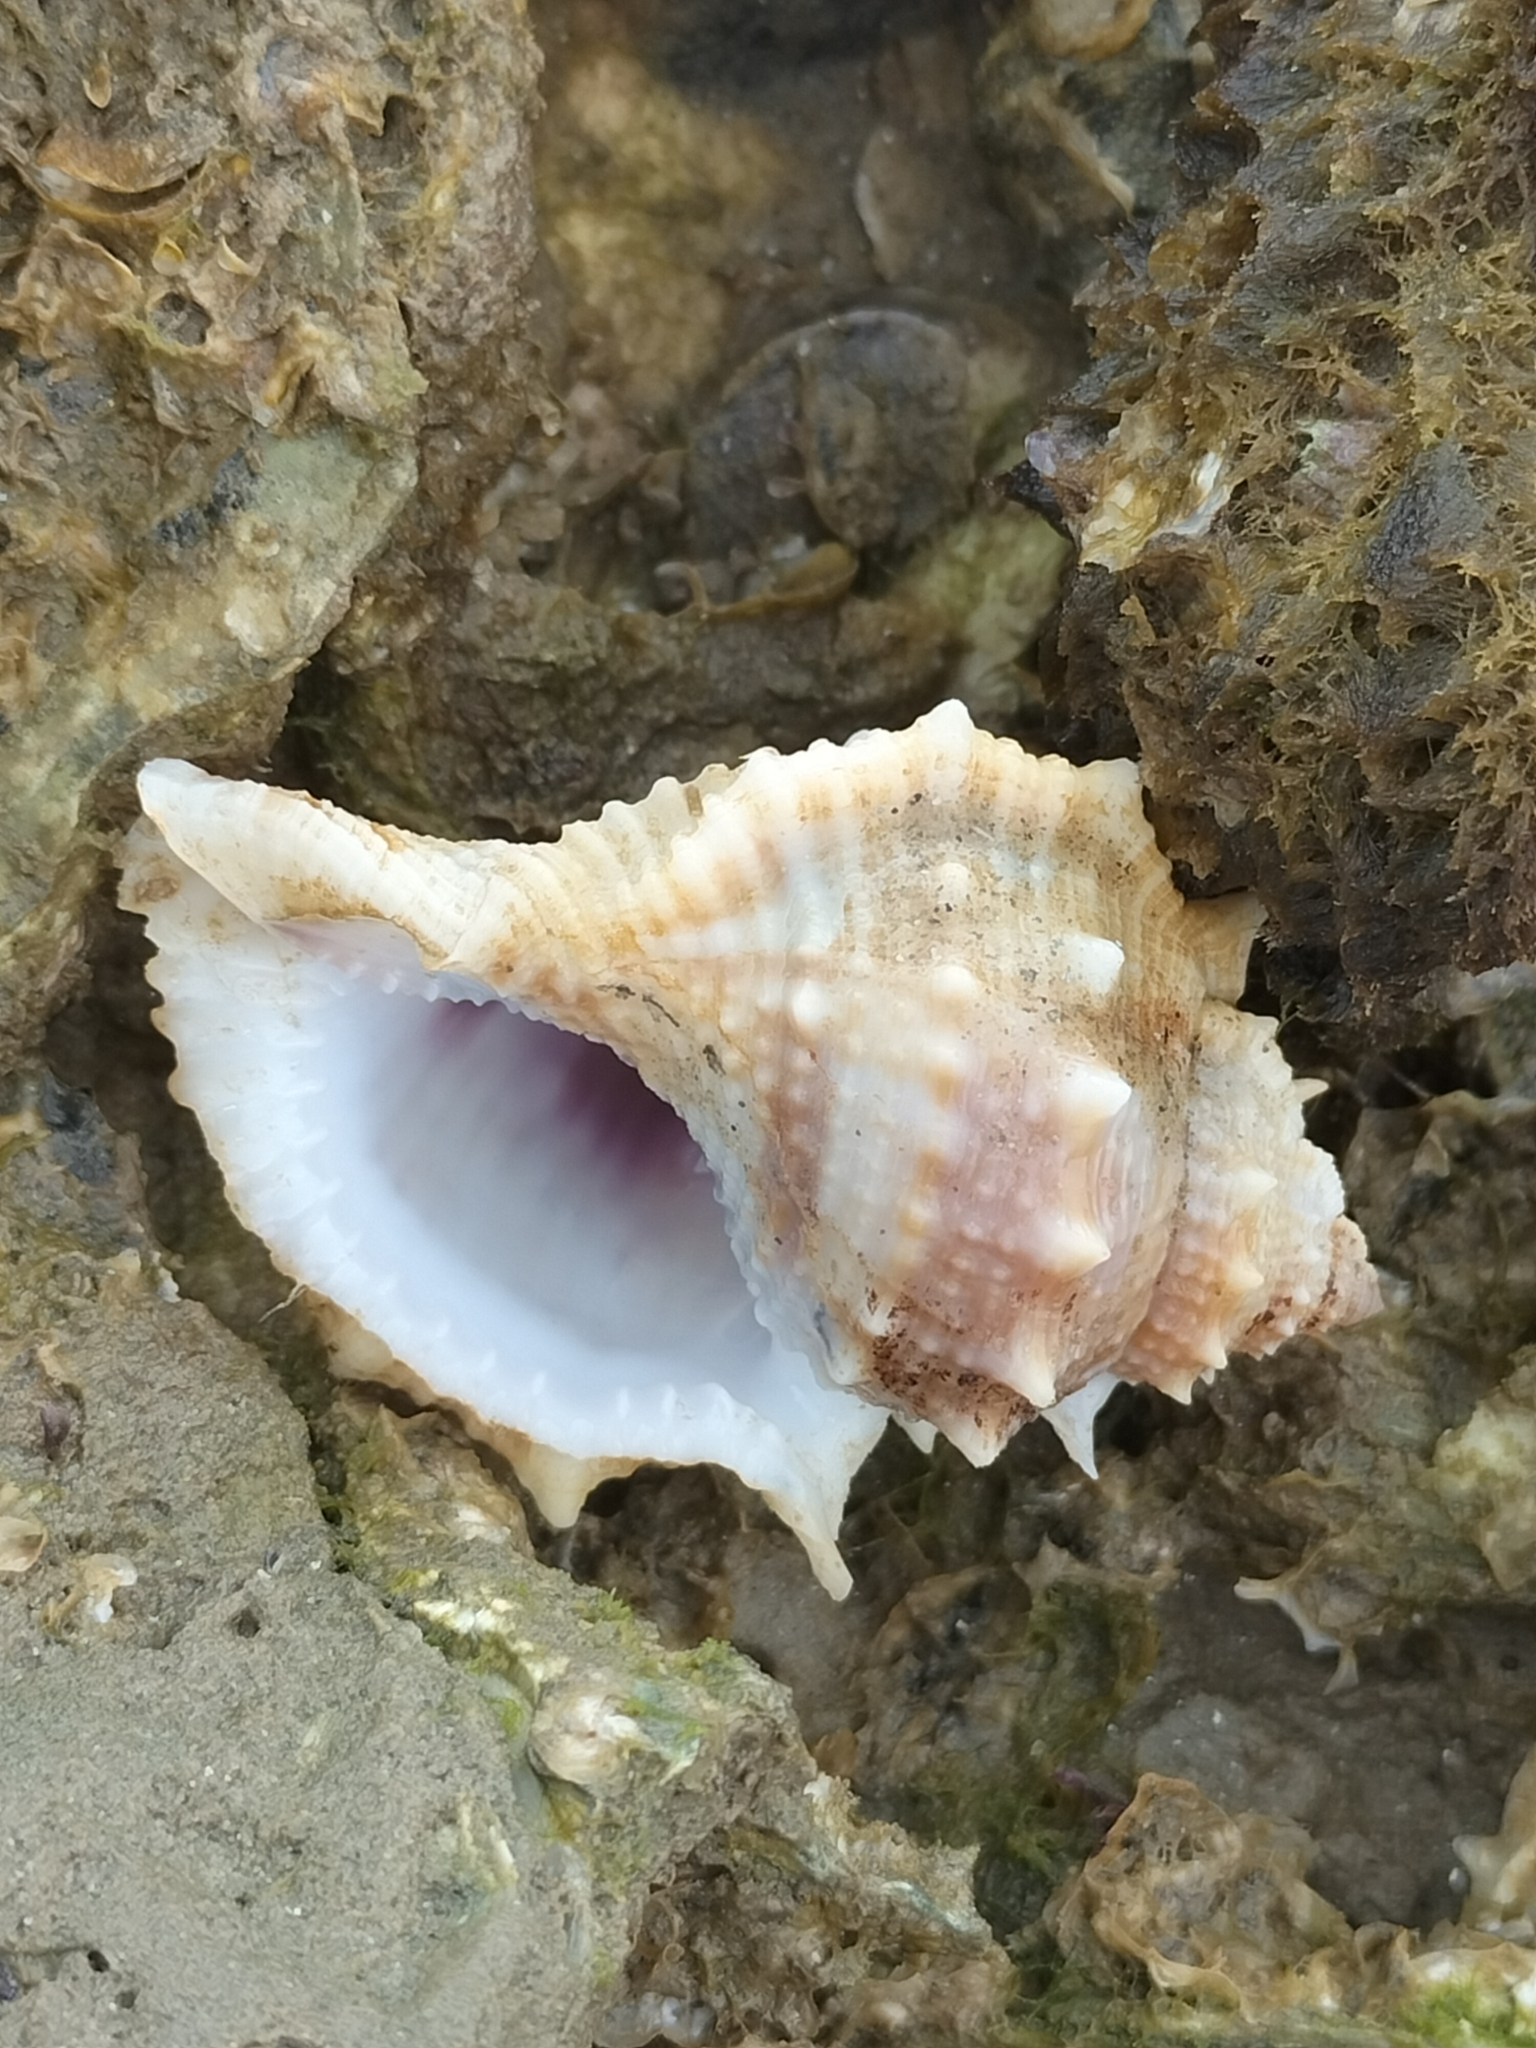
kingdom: Animalia
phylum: Mollusca
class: Gastropoda
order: Littorinimorpha
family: Bursidae
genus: Bufonaria
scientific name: Bufonaria rana
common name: Common frogsnail
